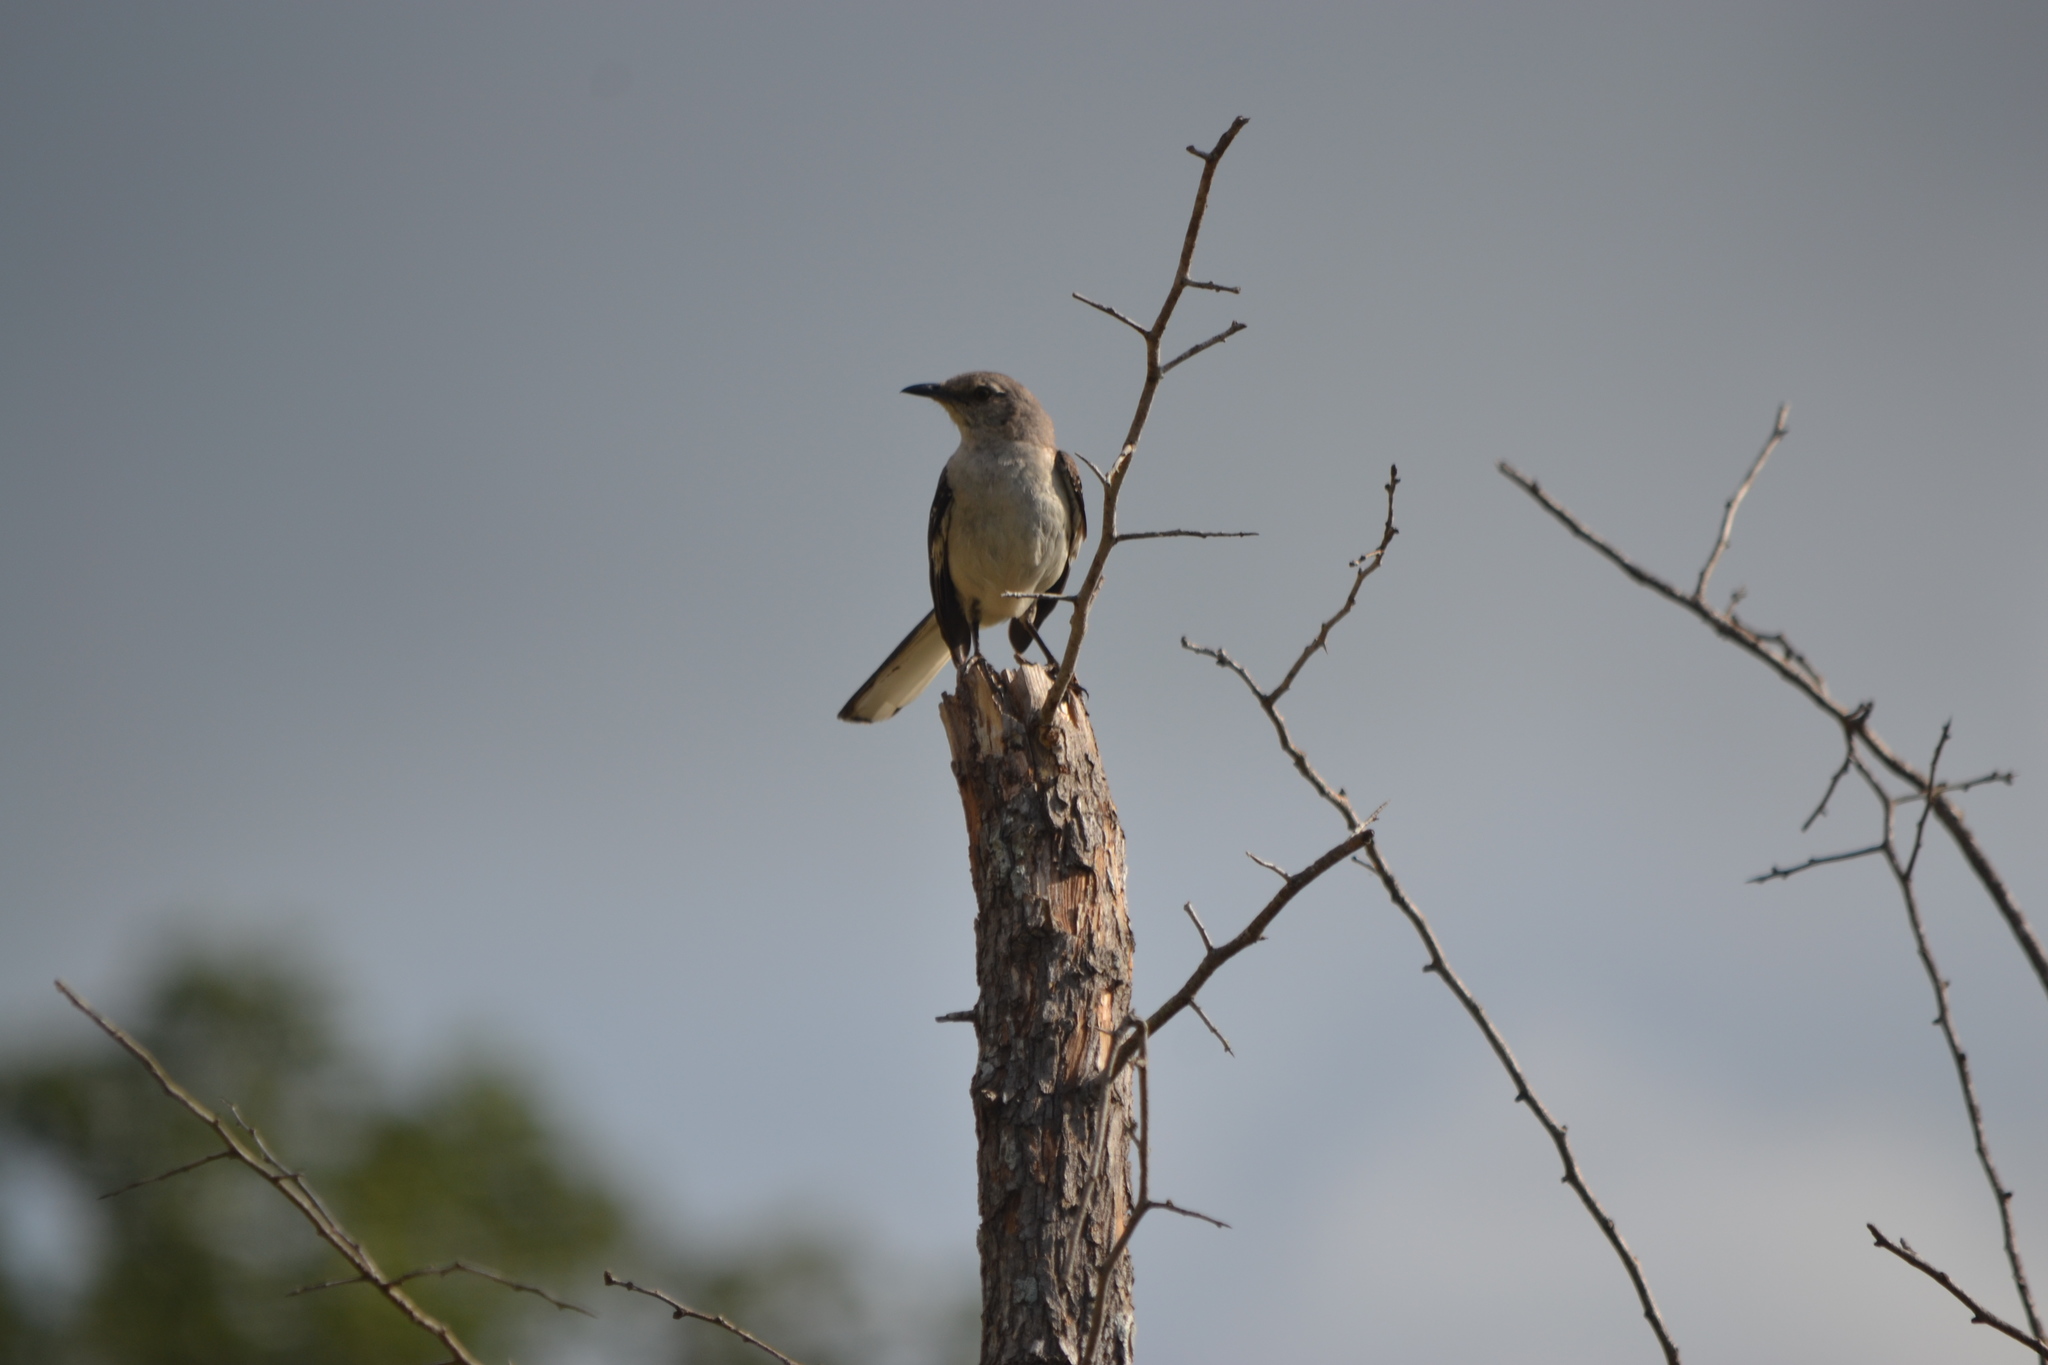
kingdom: Animalia
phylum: Chordata
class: Aves
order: Passeriformes
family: Mimidae
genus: Mimus
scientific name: Mimus polyglottos
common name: Northern mockingbird
